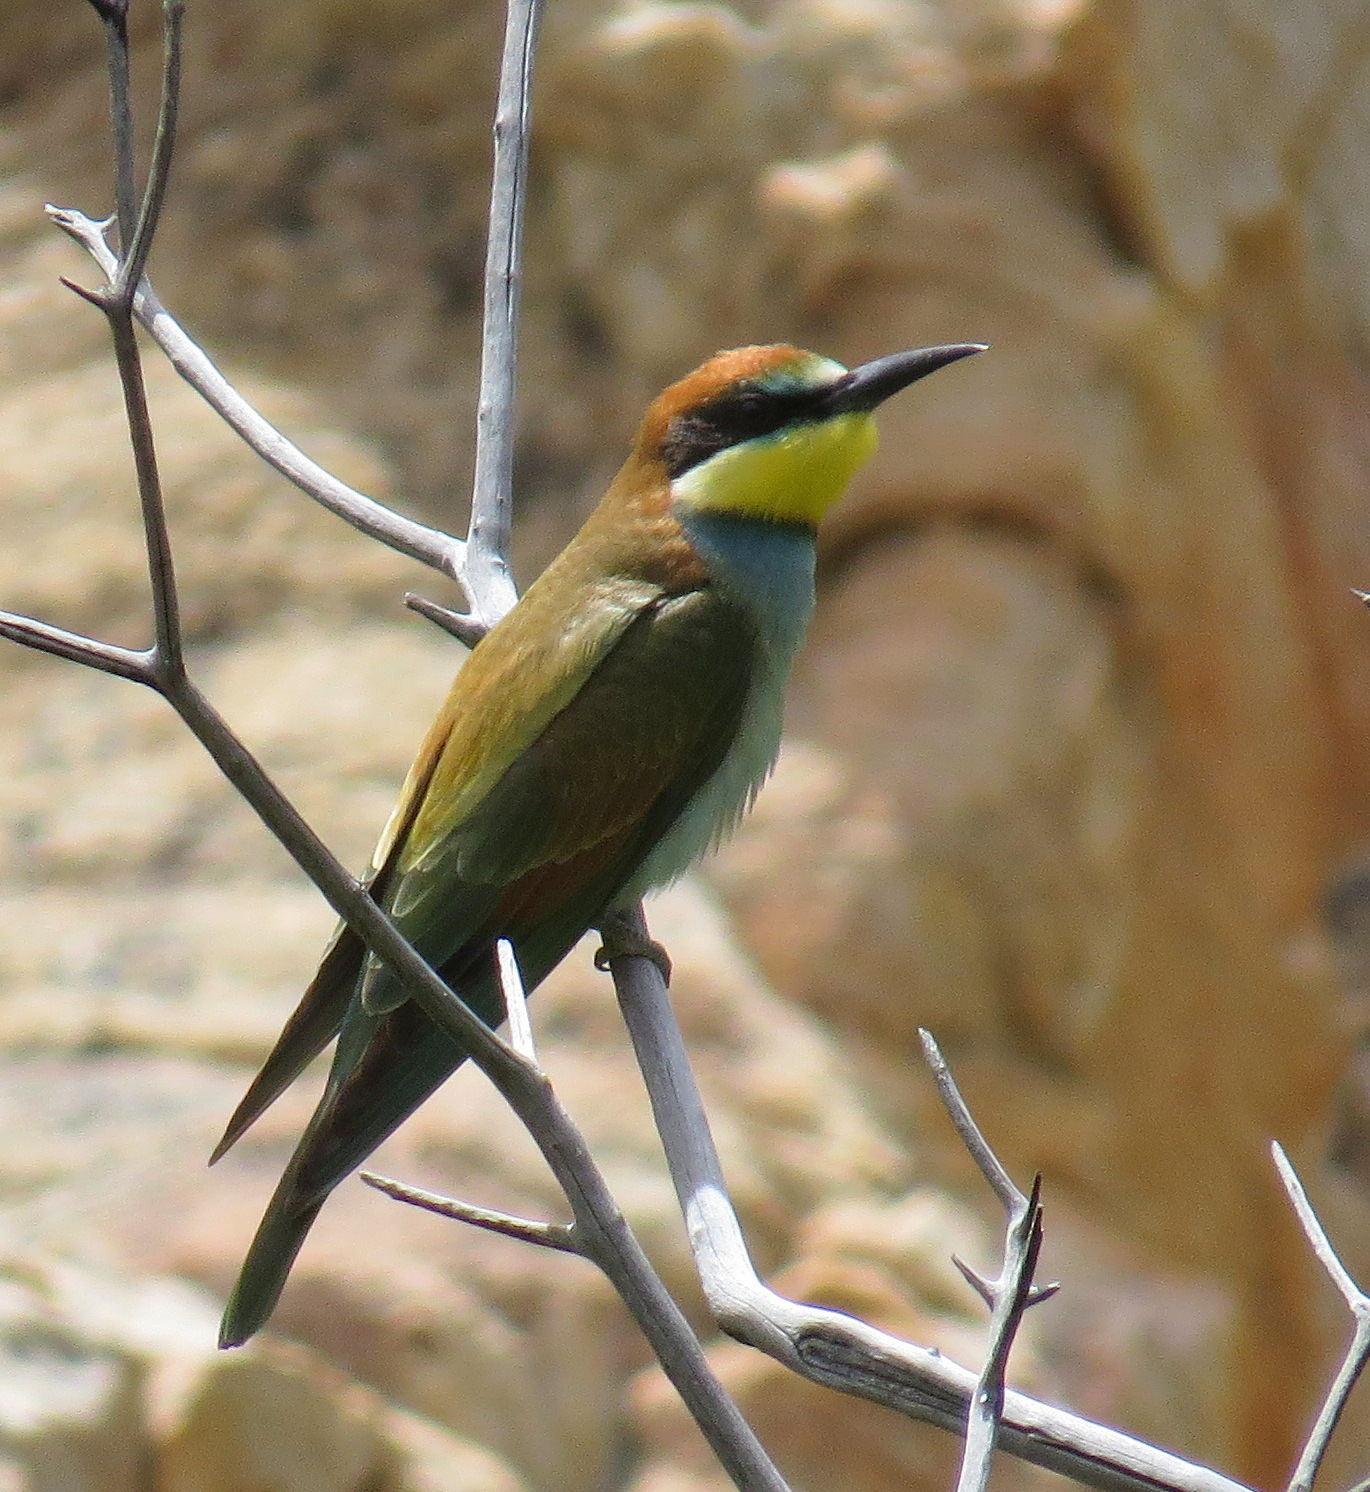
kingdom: Animalia
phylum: Chordata
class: Aves
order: Coraciiformes
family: Meropidae
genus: Merops
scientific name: Merops apiaster
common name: European bee-eater
